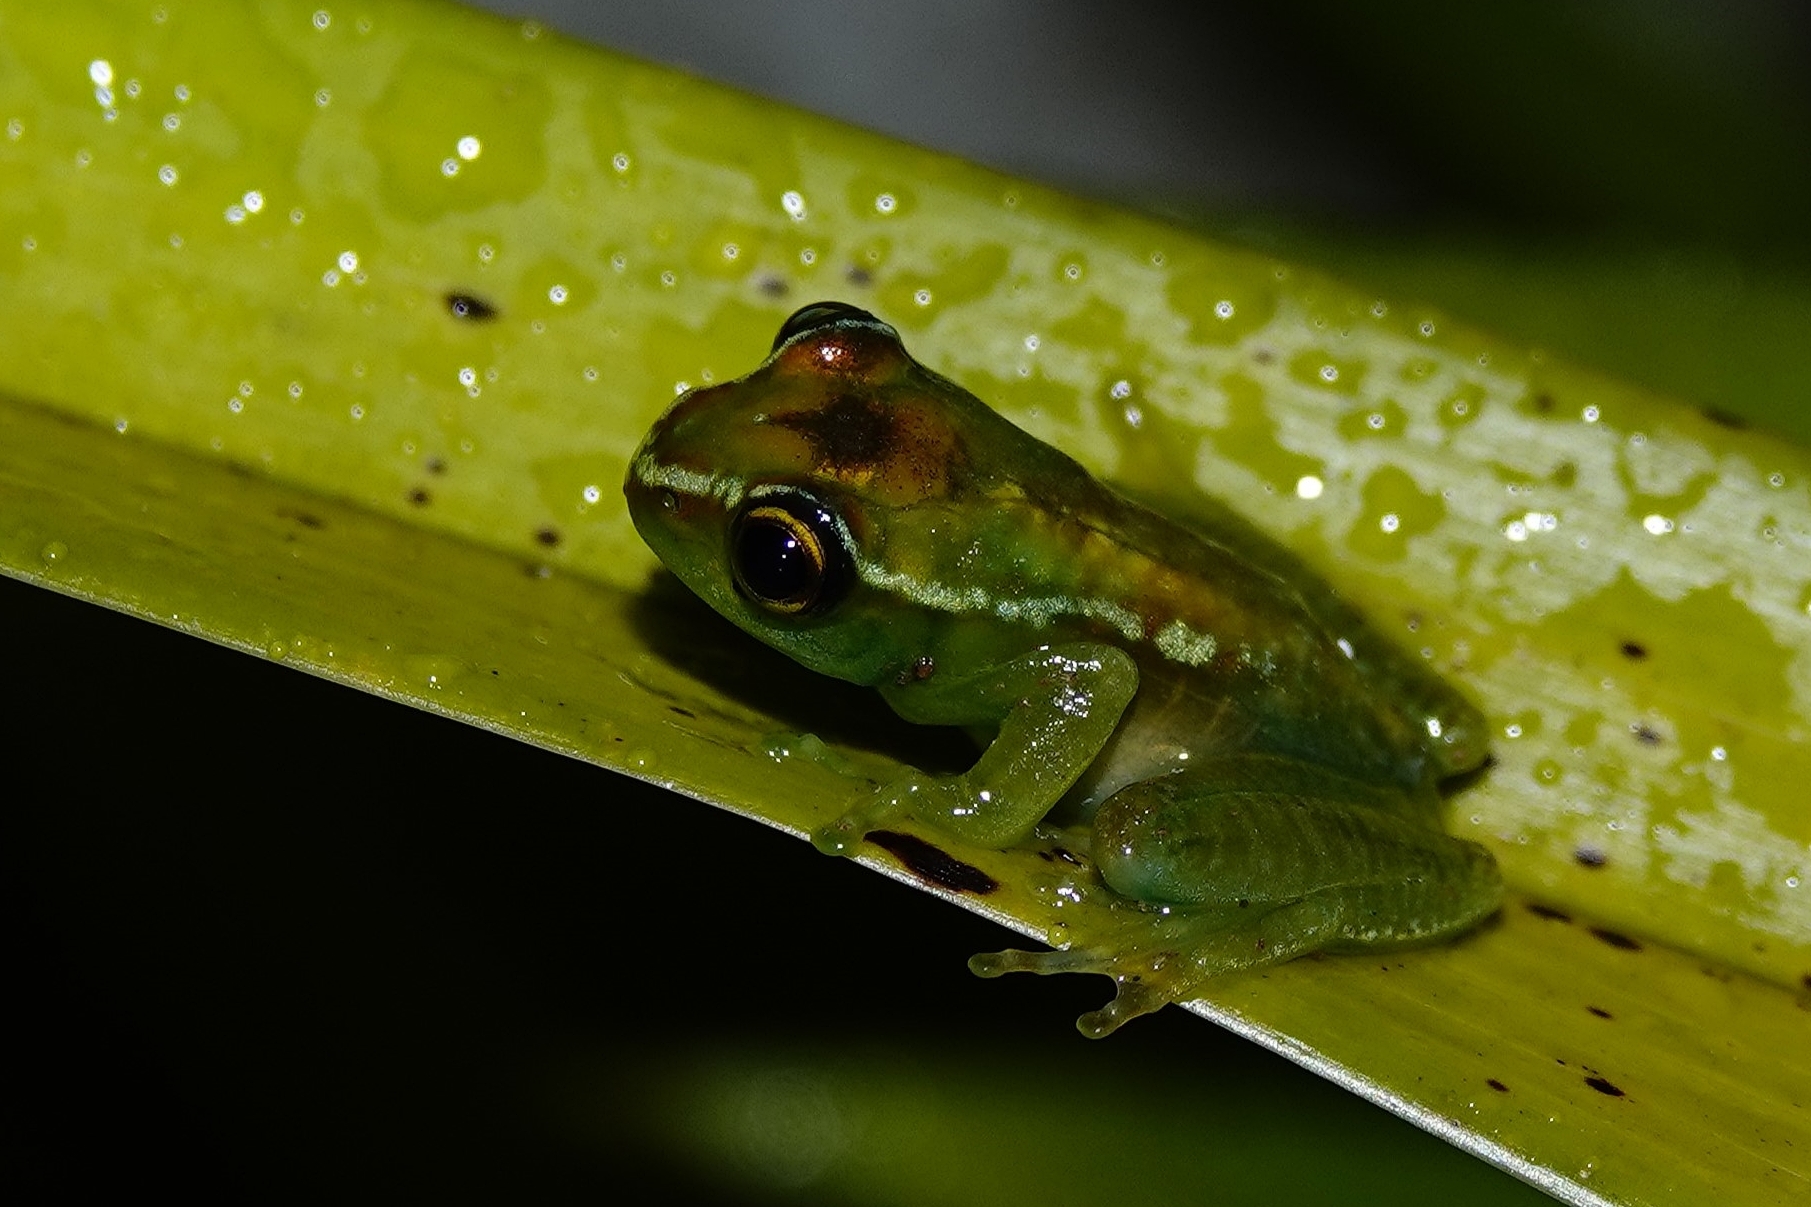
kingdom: Animalia
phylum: Chordata
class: Amphibia
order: Anura
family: Mantellidae
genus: Boophis
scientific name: Boophis andohahela
